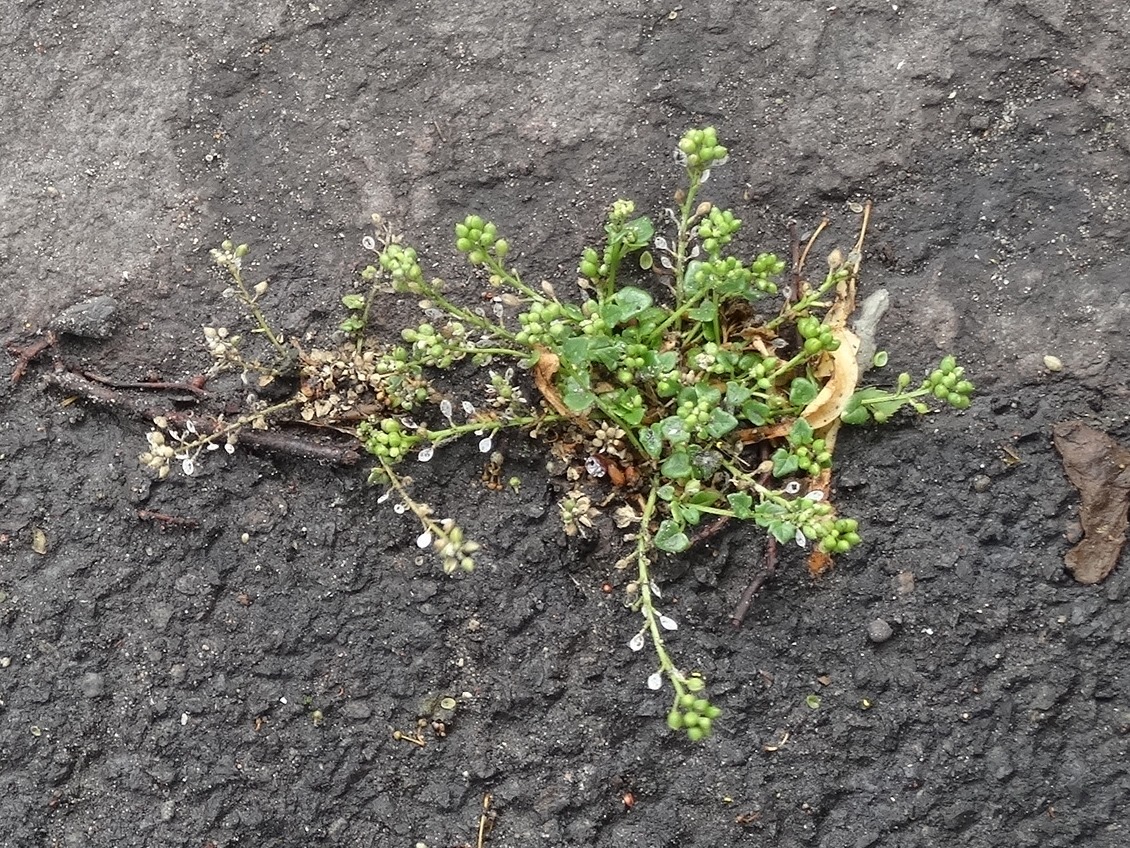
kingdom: Plantae
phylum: Tracheophyta
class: Magnoliopsida
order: Brassicales
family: Brassicaceae
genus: Cochlearia
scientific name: Cochlearia danica
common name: Early scurvygrass
